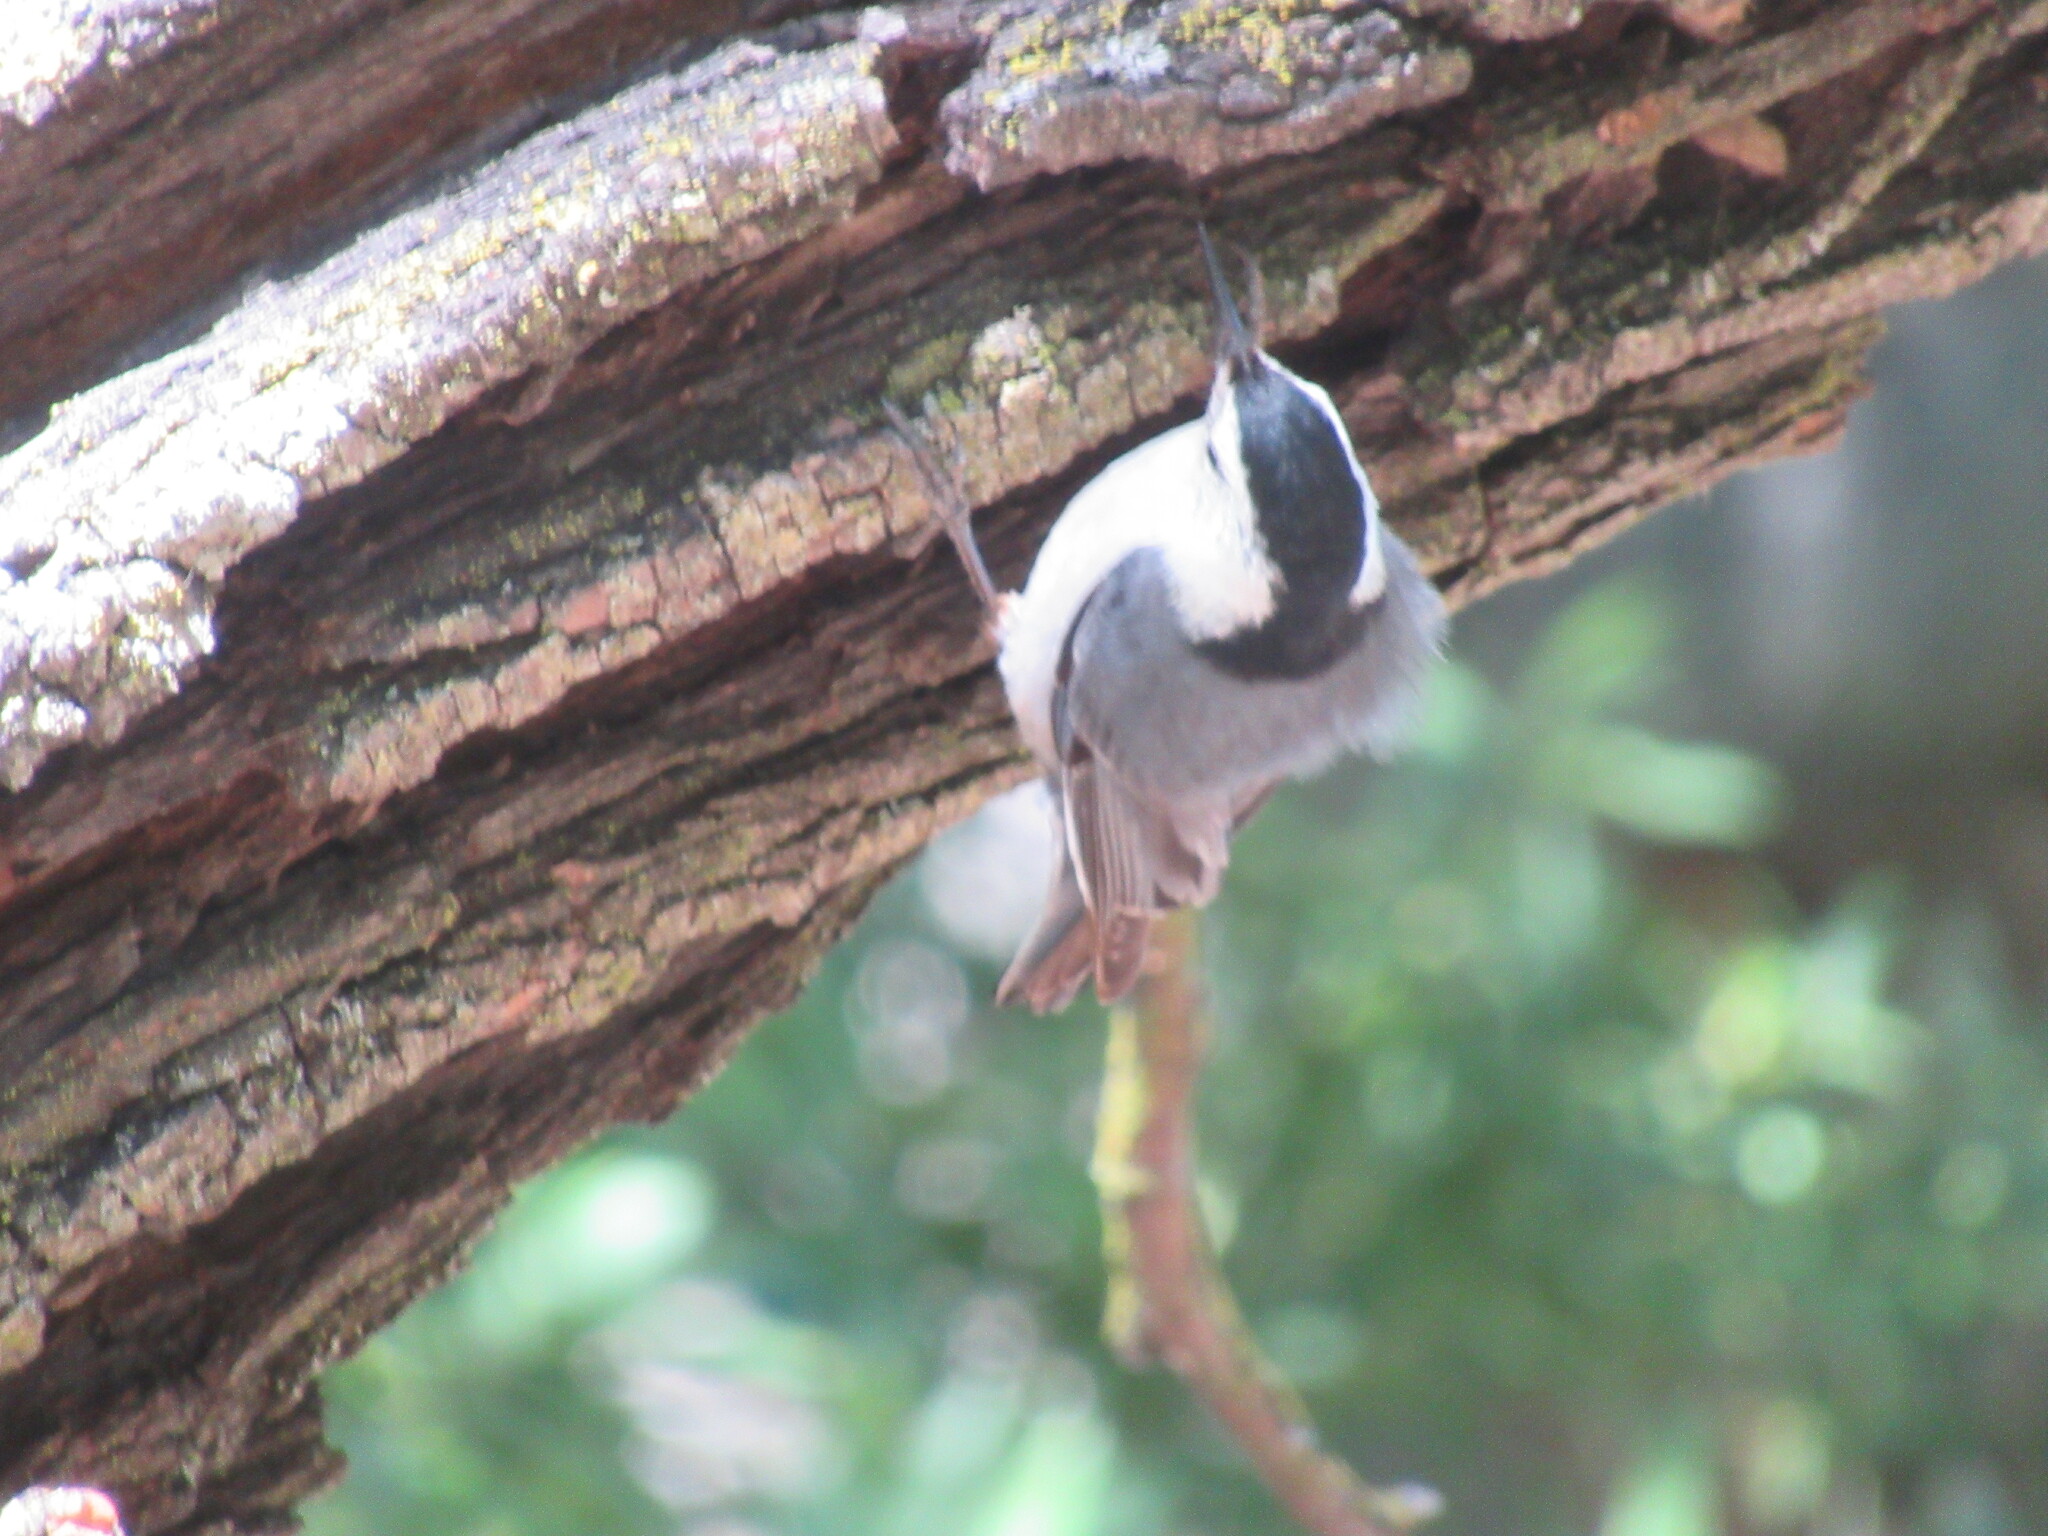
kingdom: Animalia
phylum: Chordata
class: Aves
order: Passeriformes
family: Sittidae
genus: Sitta
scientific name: Sitta carolinensis
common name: White-breasted nuthatch
